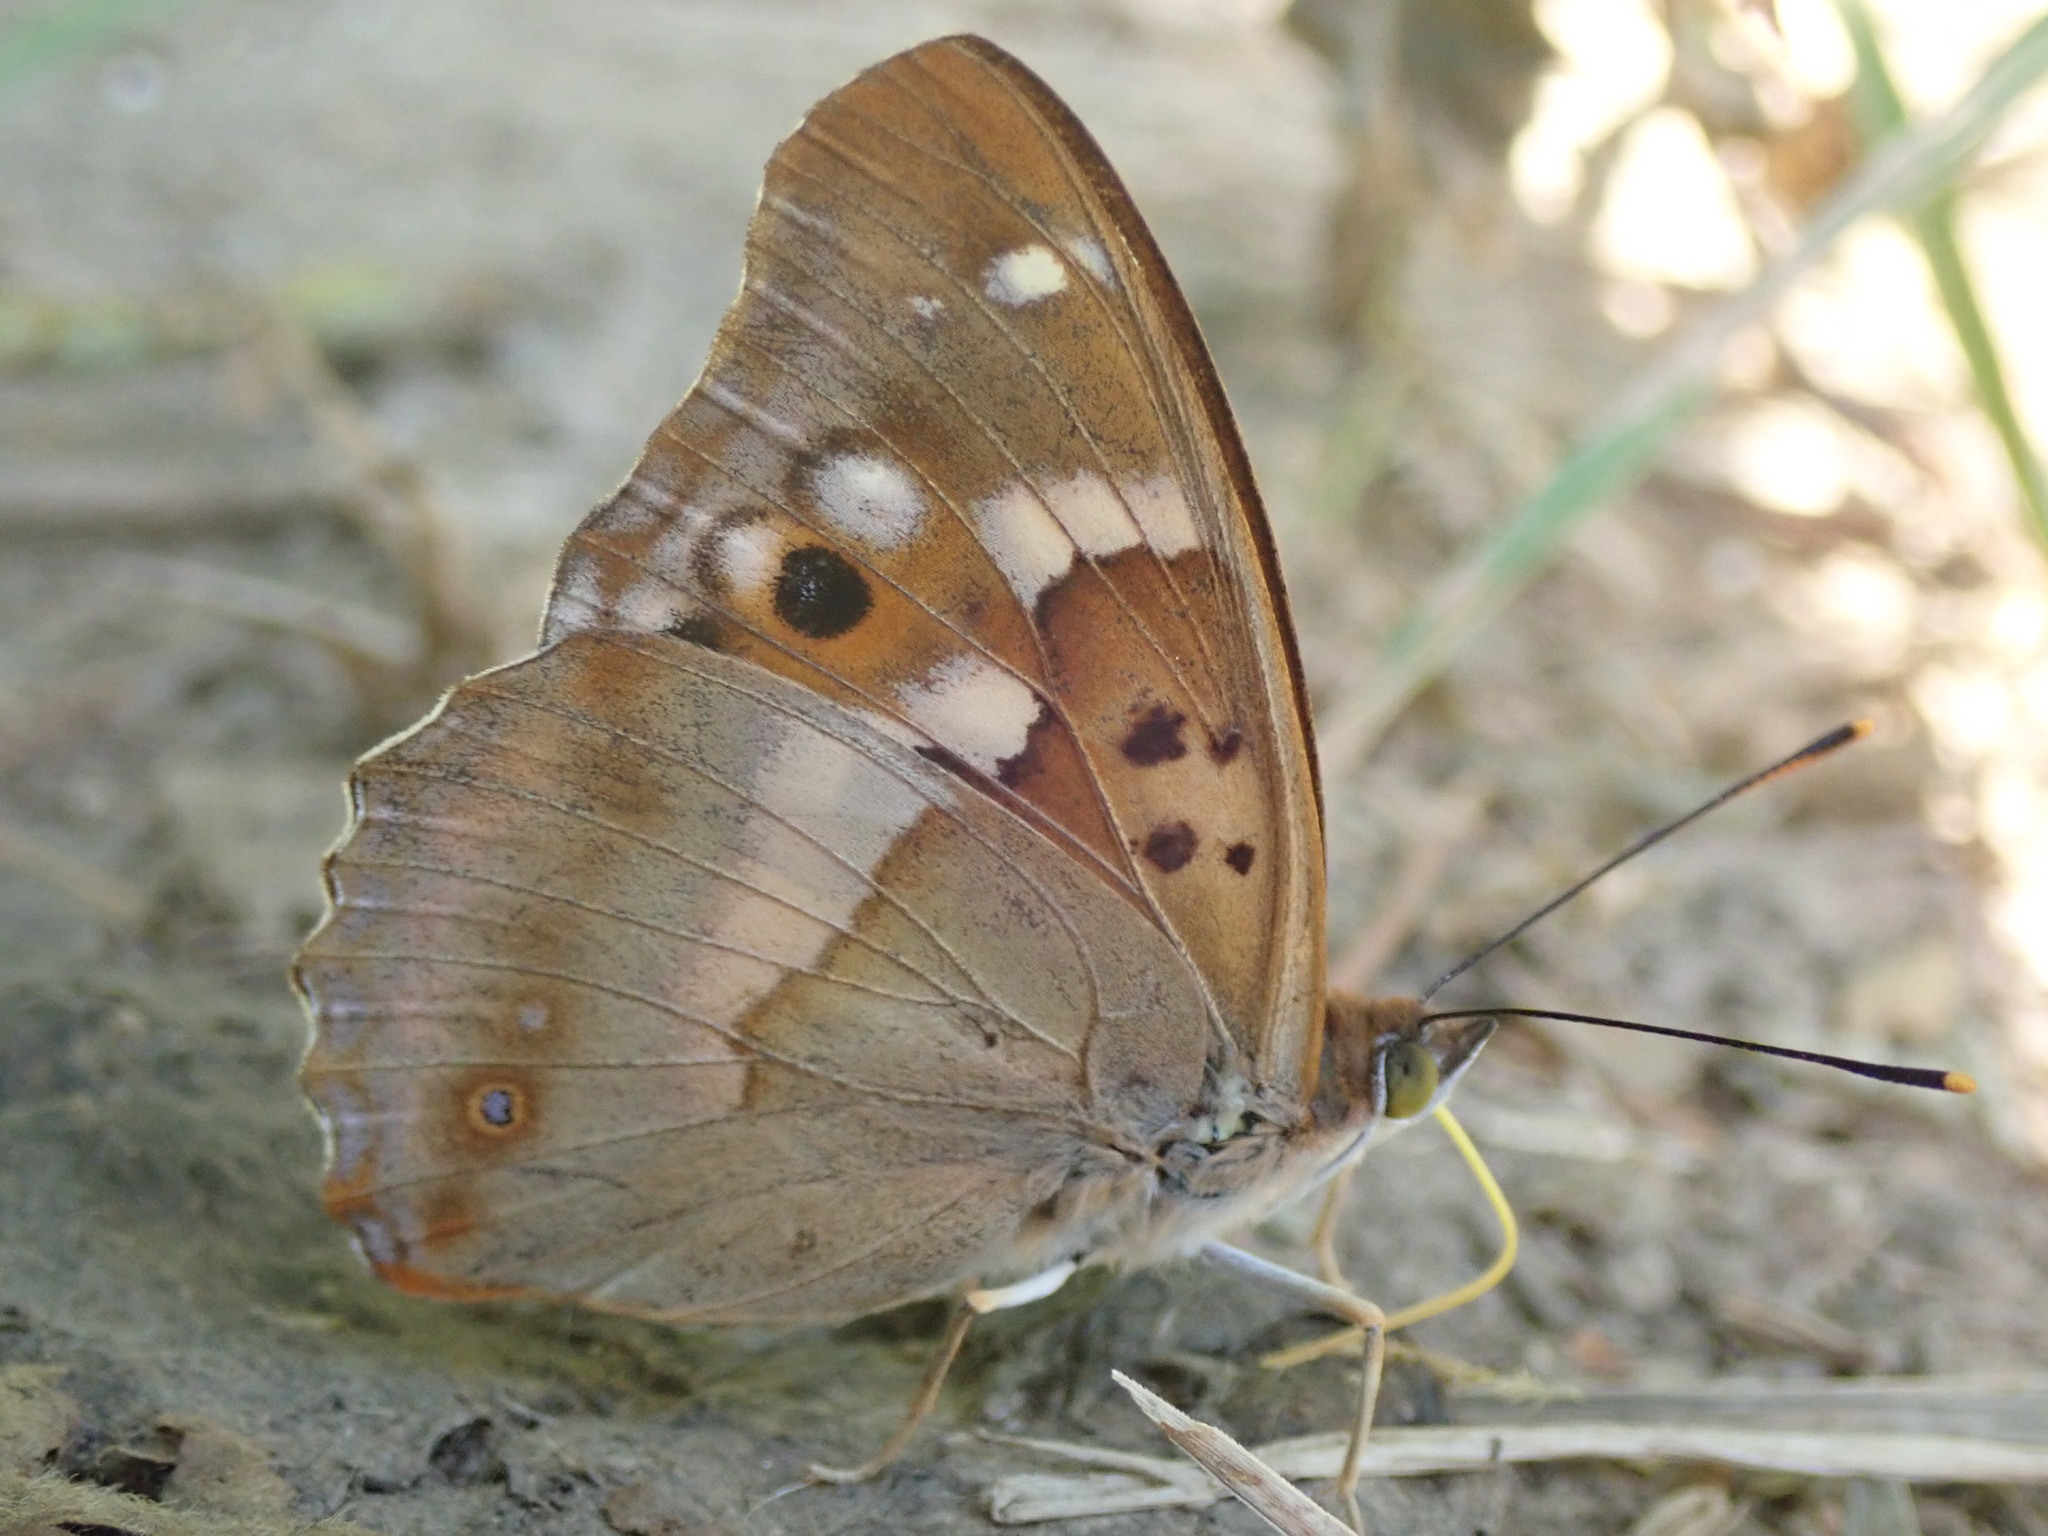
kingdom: Animalia
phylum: Arthropoda
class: Insecta
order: Lepidoptera
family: Nymphalidae
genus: Apatura
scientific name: Apatura ilia
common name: Lesser purple emperor
